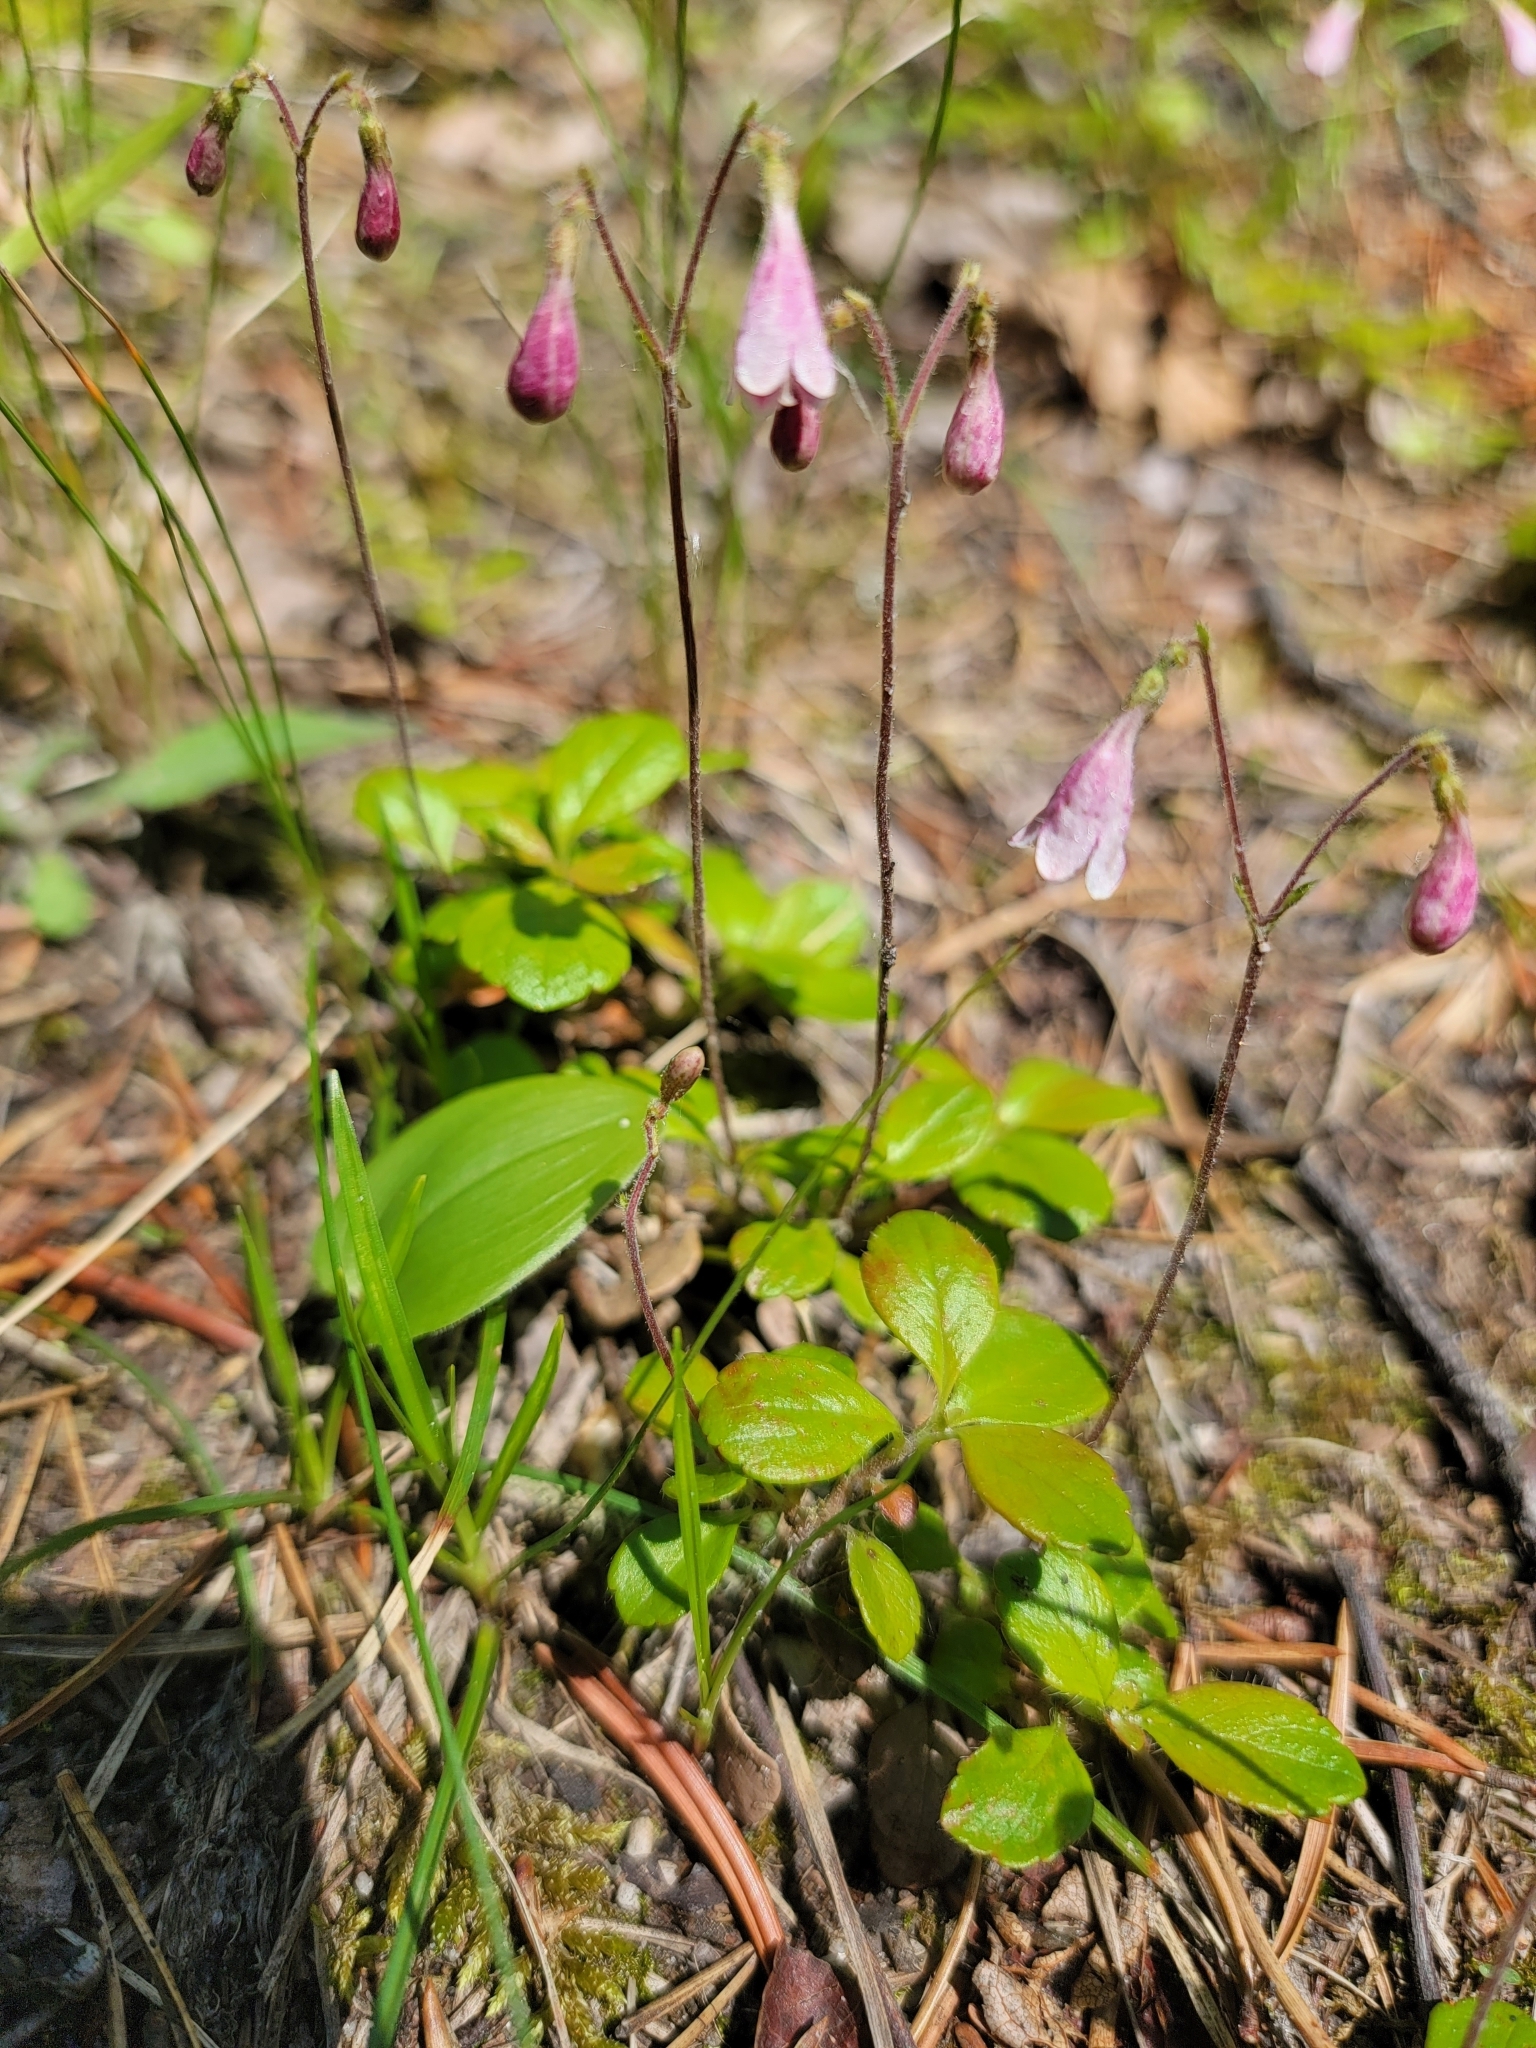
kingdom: Plantae
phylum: Tracheophyta
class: Magnoliopsida
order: Dipsacales
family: Caprifoliaceae
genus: Linnaea
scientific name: Linnaea borealis
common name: Twinflower
